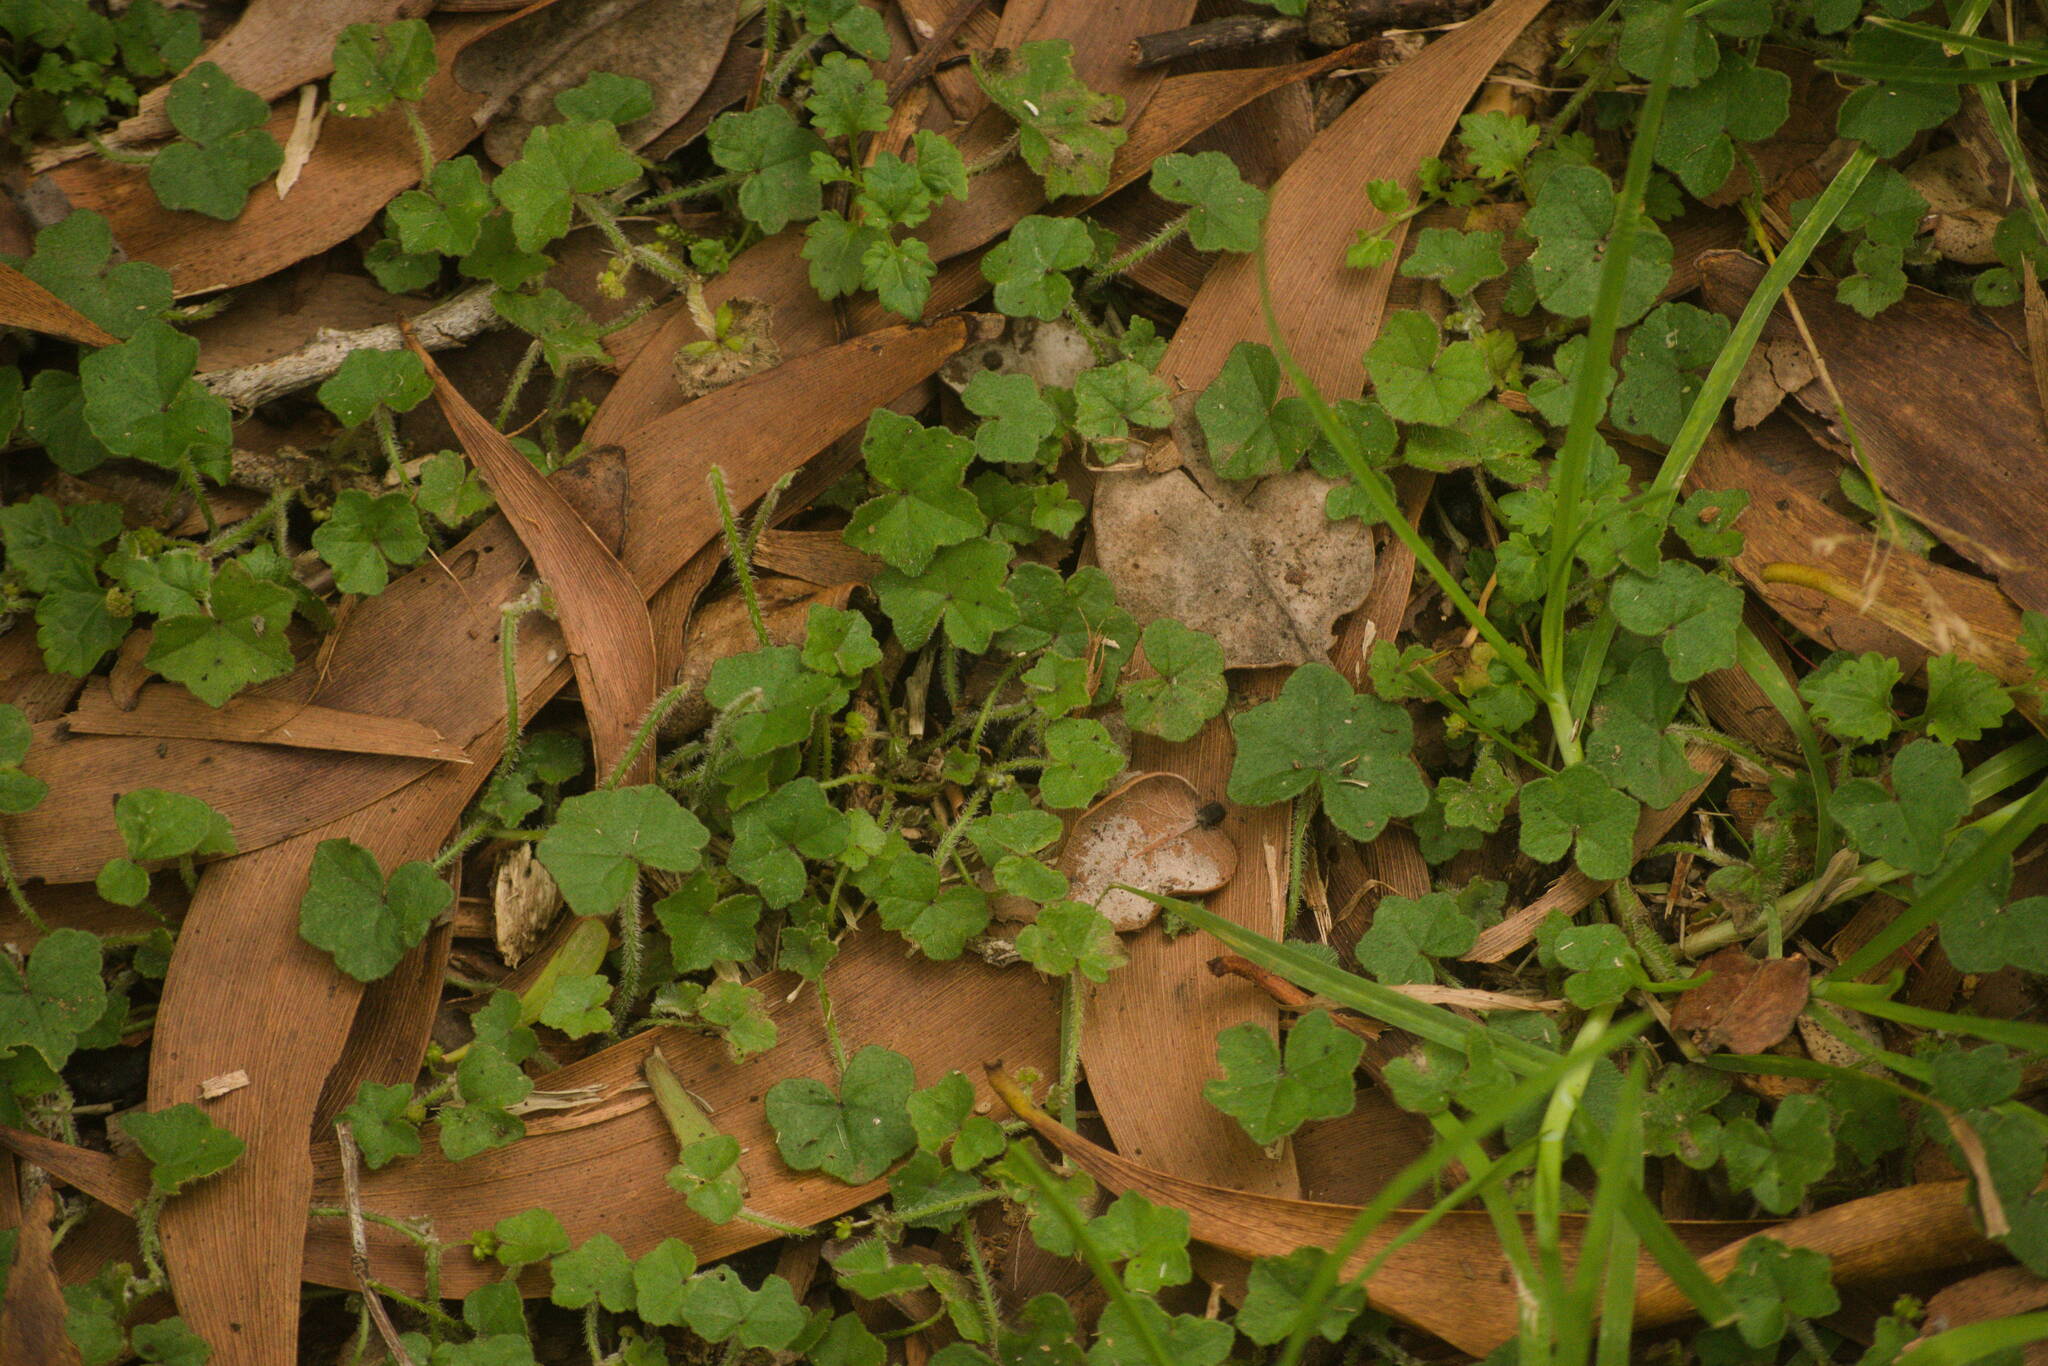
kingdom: Plantae
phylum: Tracheophyta
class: Magnoliopsida
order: Apiales
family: Araliaceae
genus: Hydrocotyle
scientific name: Hydrocotyle bowlesioides
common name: Largeleaf marshpennywort
